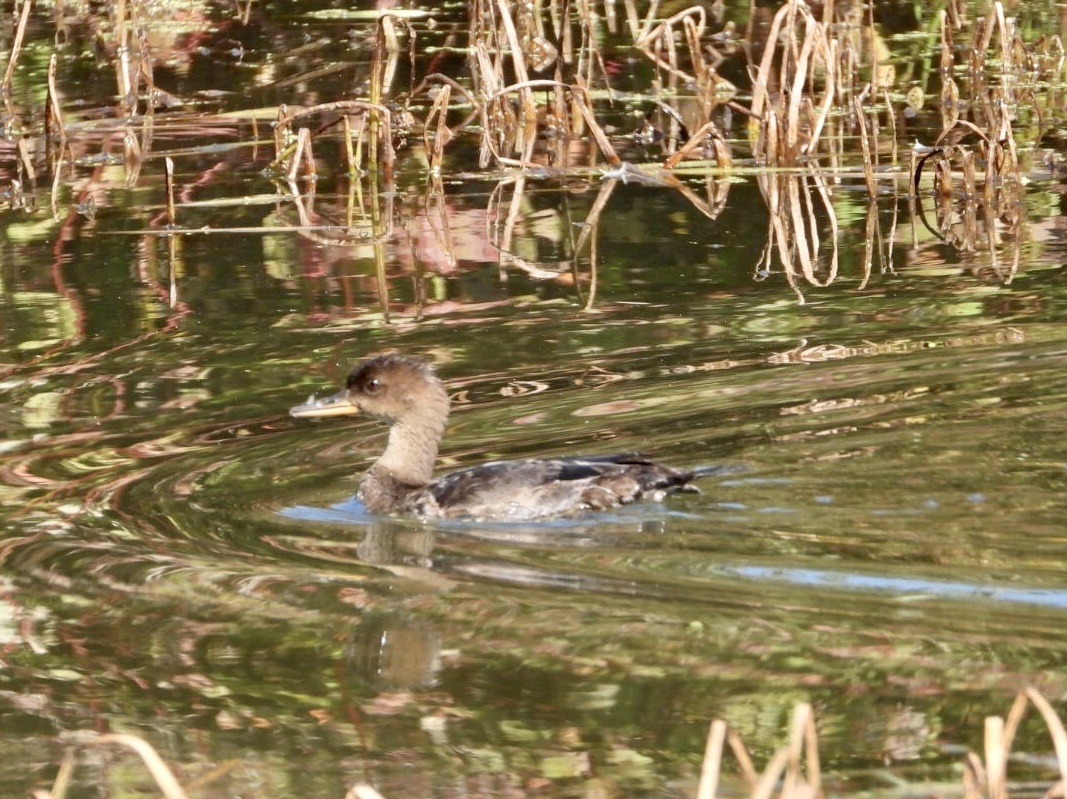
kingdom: Animalia
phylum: Chordata
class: Aves
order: Anseriformes
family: Anatidae
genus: Lophodytes
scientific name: Lophodytes cucullatus
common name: Hooded merganser
